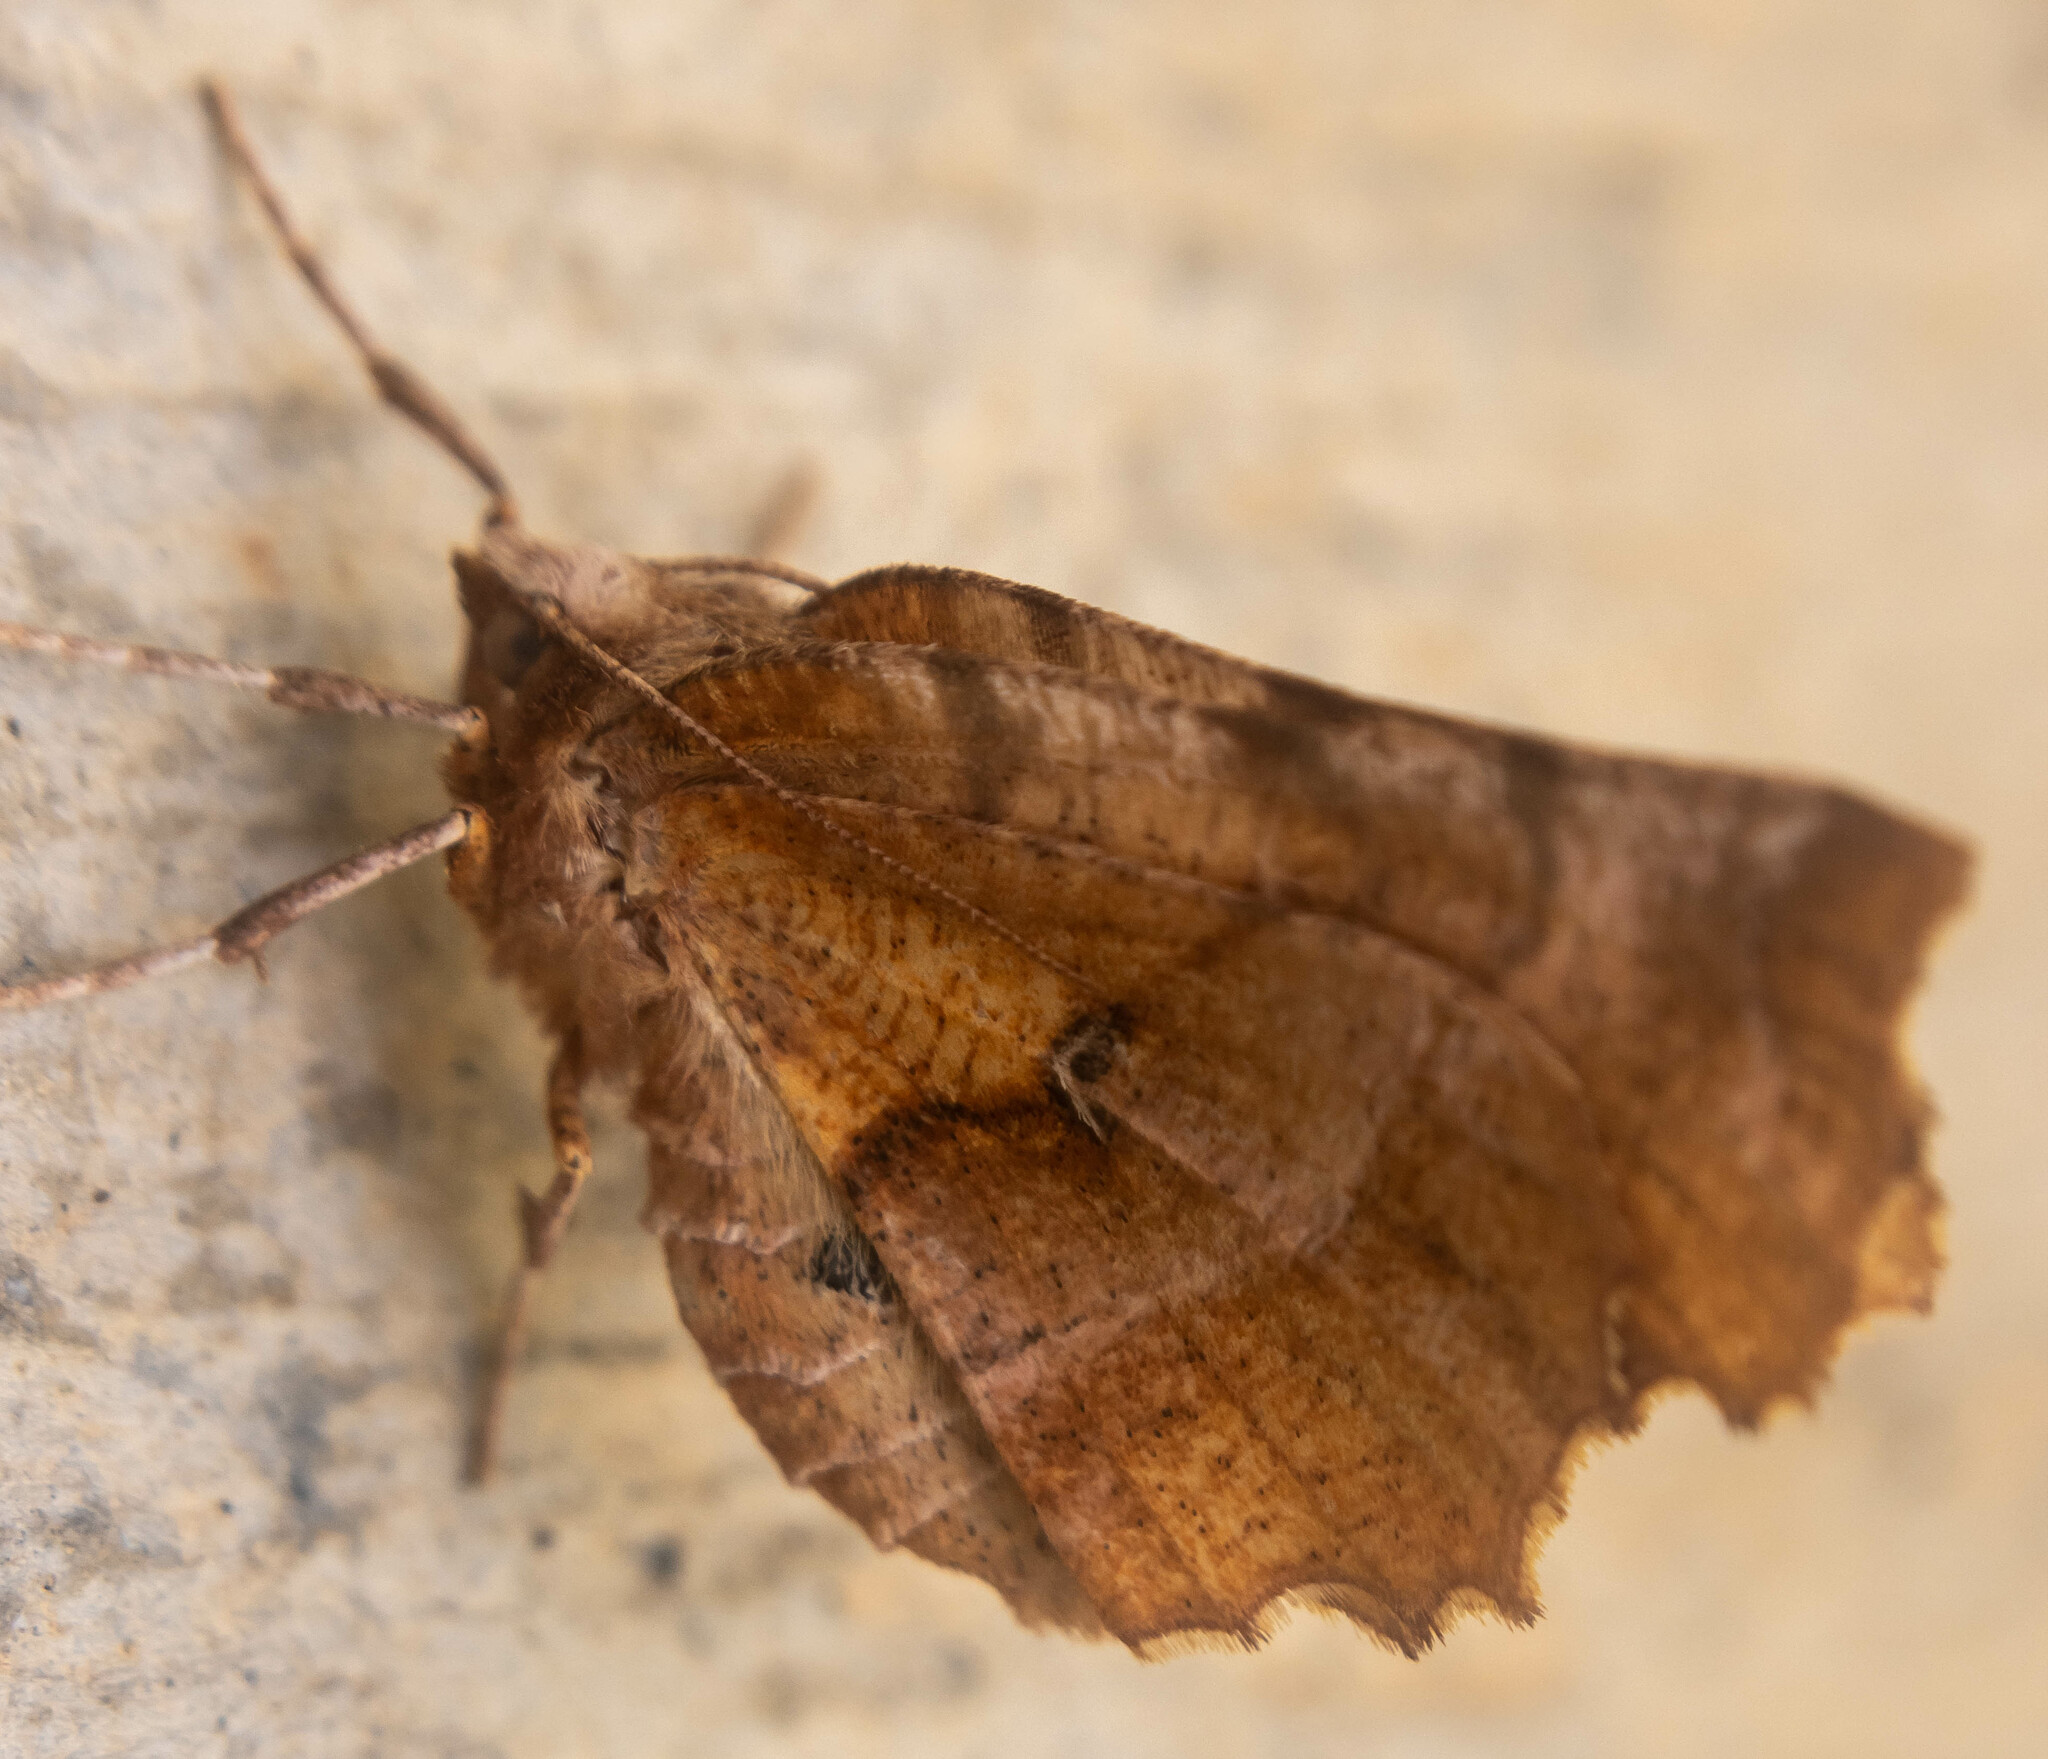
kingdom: Animalia
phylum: Arthropoda
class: Insecta
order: Lepidoptera
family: Geometridae
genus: Selenia
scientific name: Selenia dentaria
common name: Early thorn
